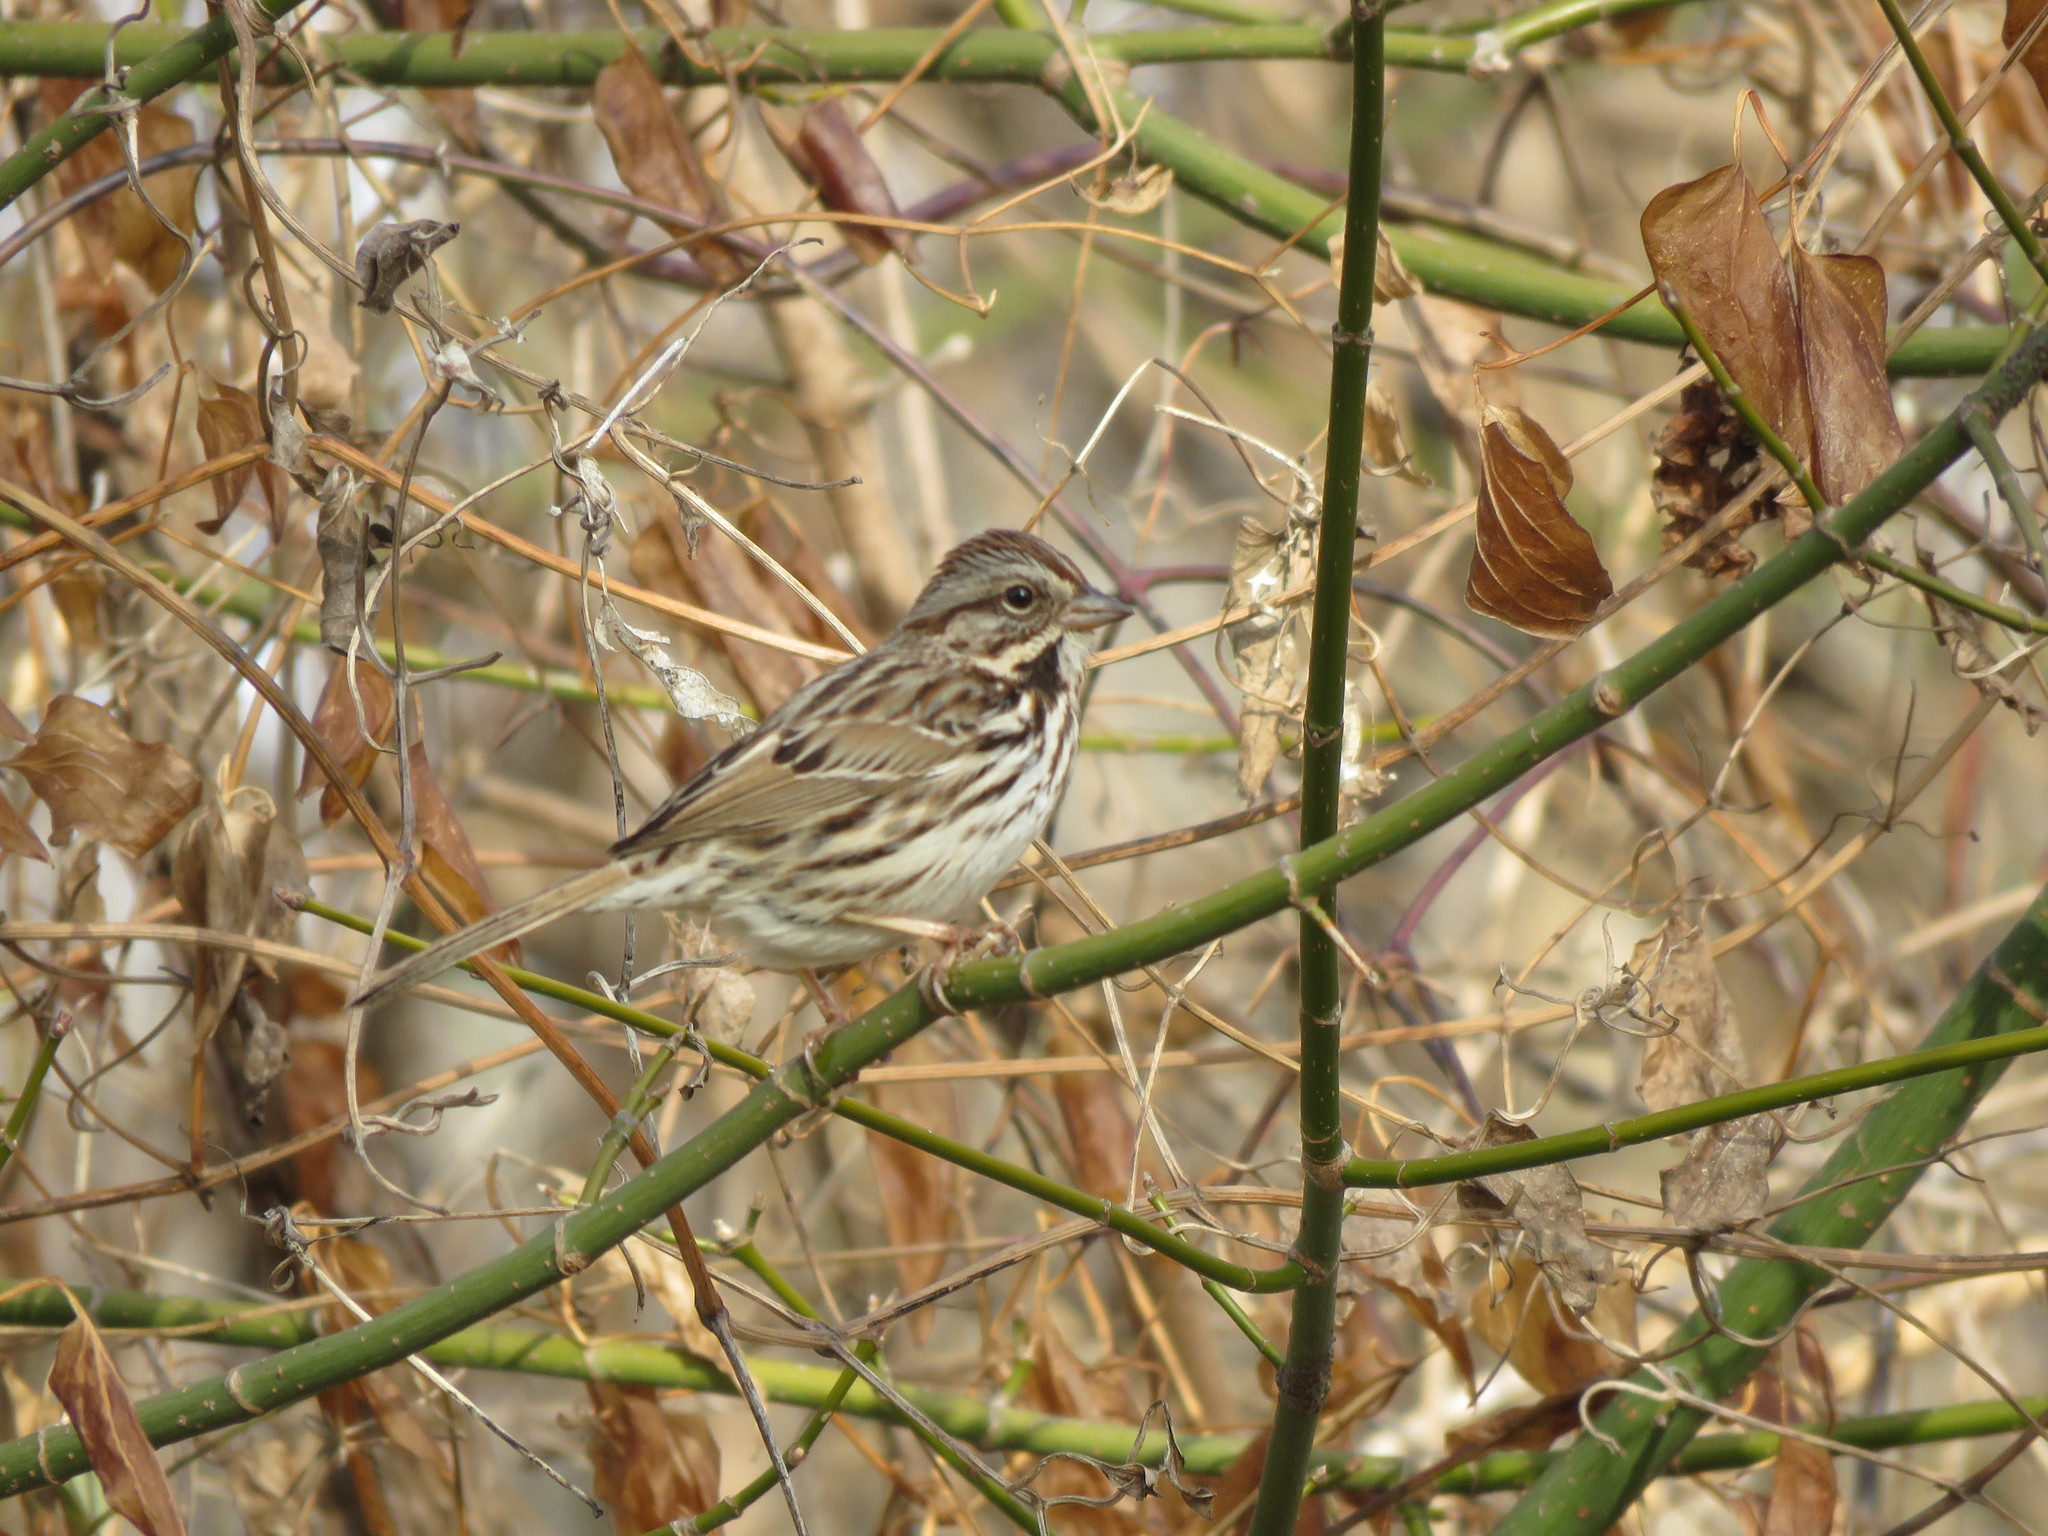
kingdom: Animalia
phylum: Chordata
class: Aves
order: Passeriformes
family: Passerellidae
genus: Melospiza
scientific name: Melospiza melodia
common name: Song sparrow
